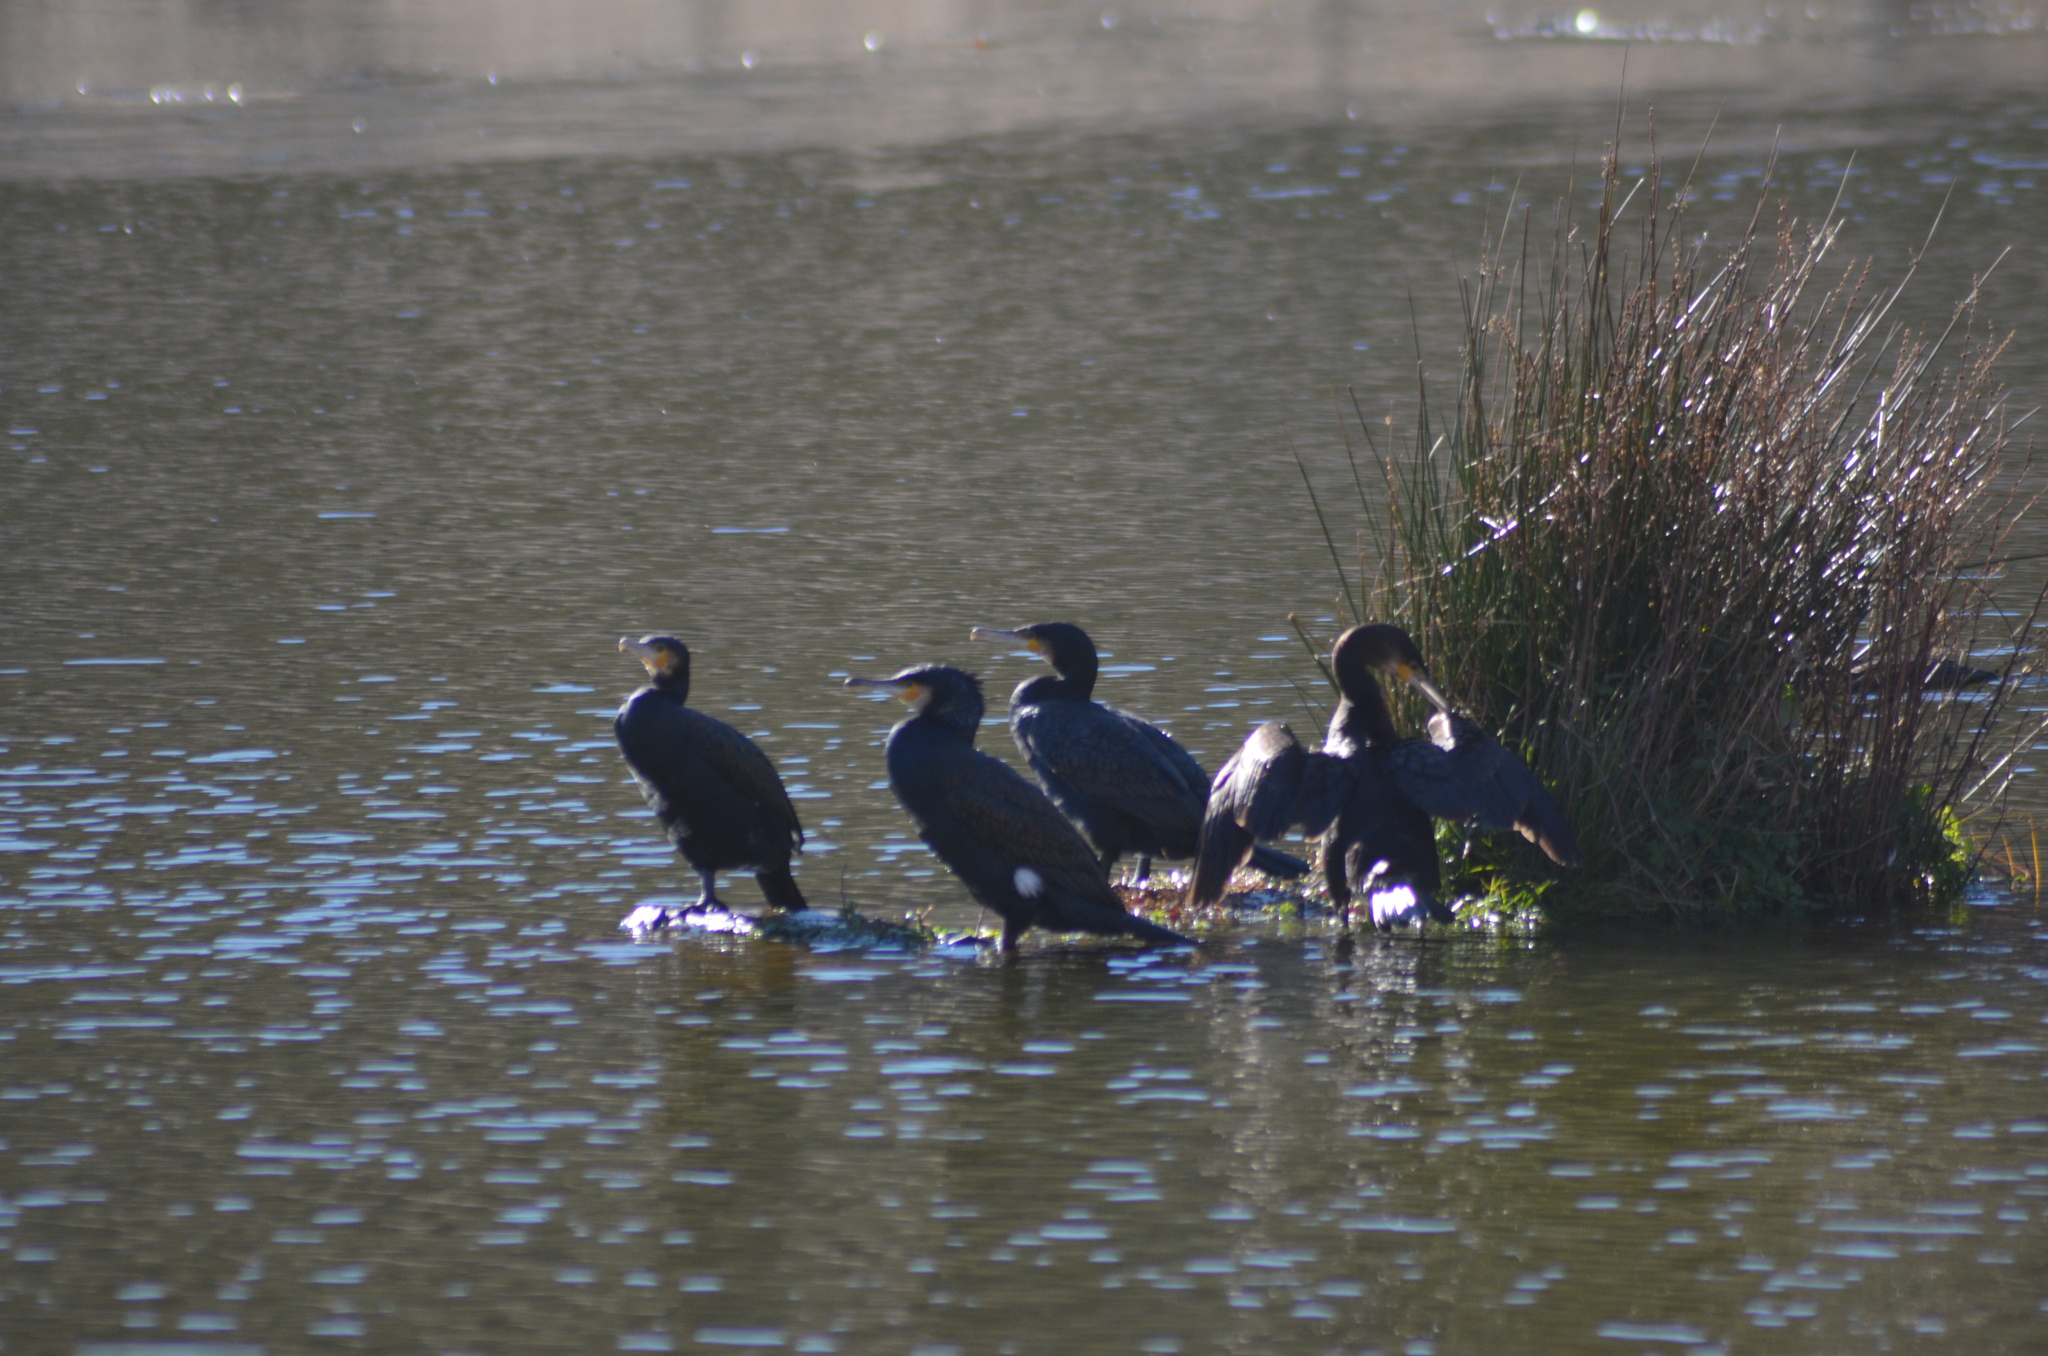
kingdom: Animalia
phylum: Chordata
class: Aves
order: Suliformes
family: Phalacrocoracidae
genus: Phalacrocorax
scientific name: Phalacrocorax carbo
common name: Great cormorant
